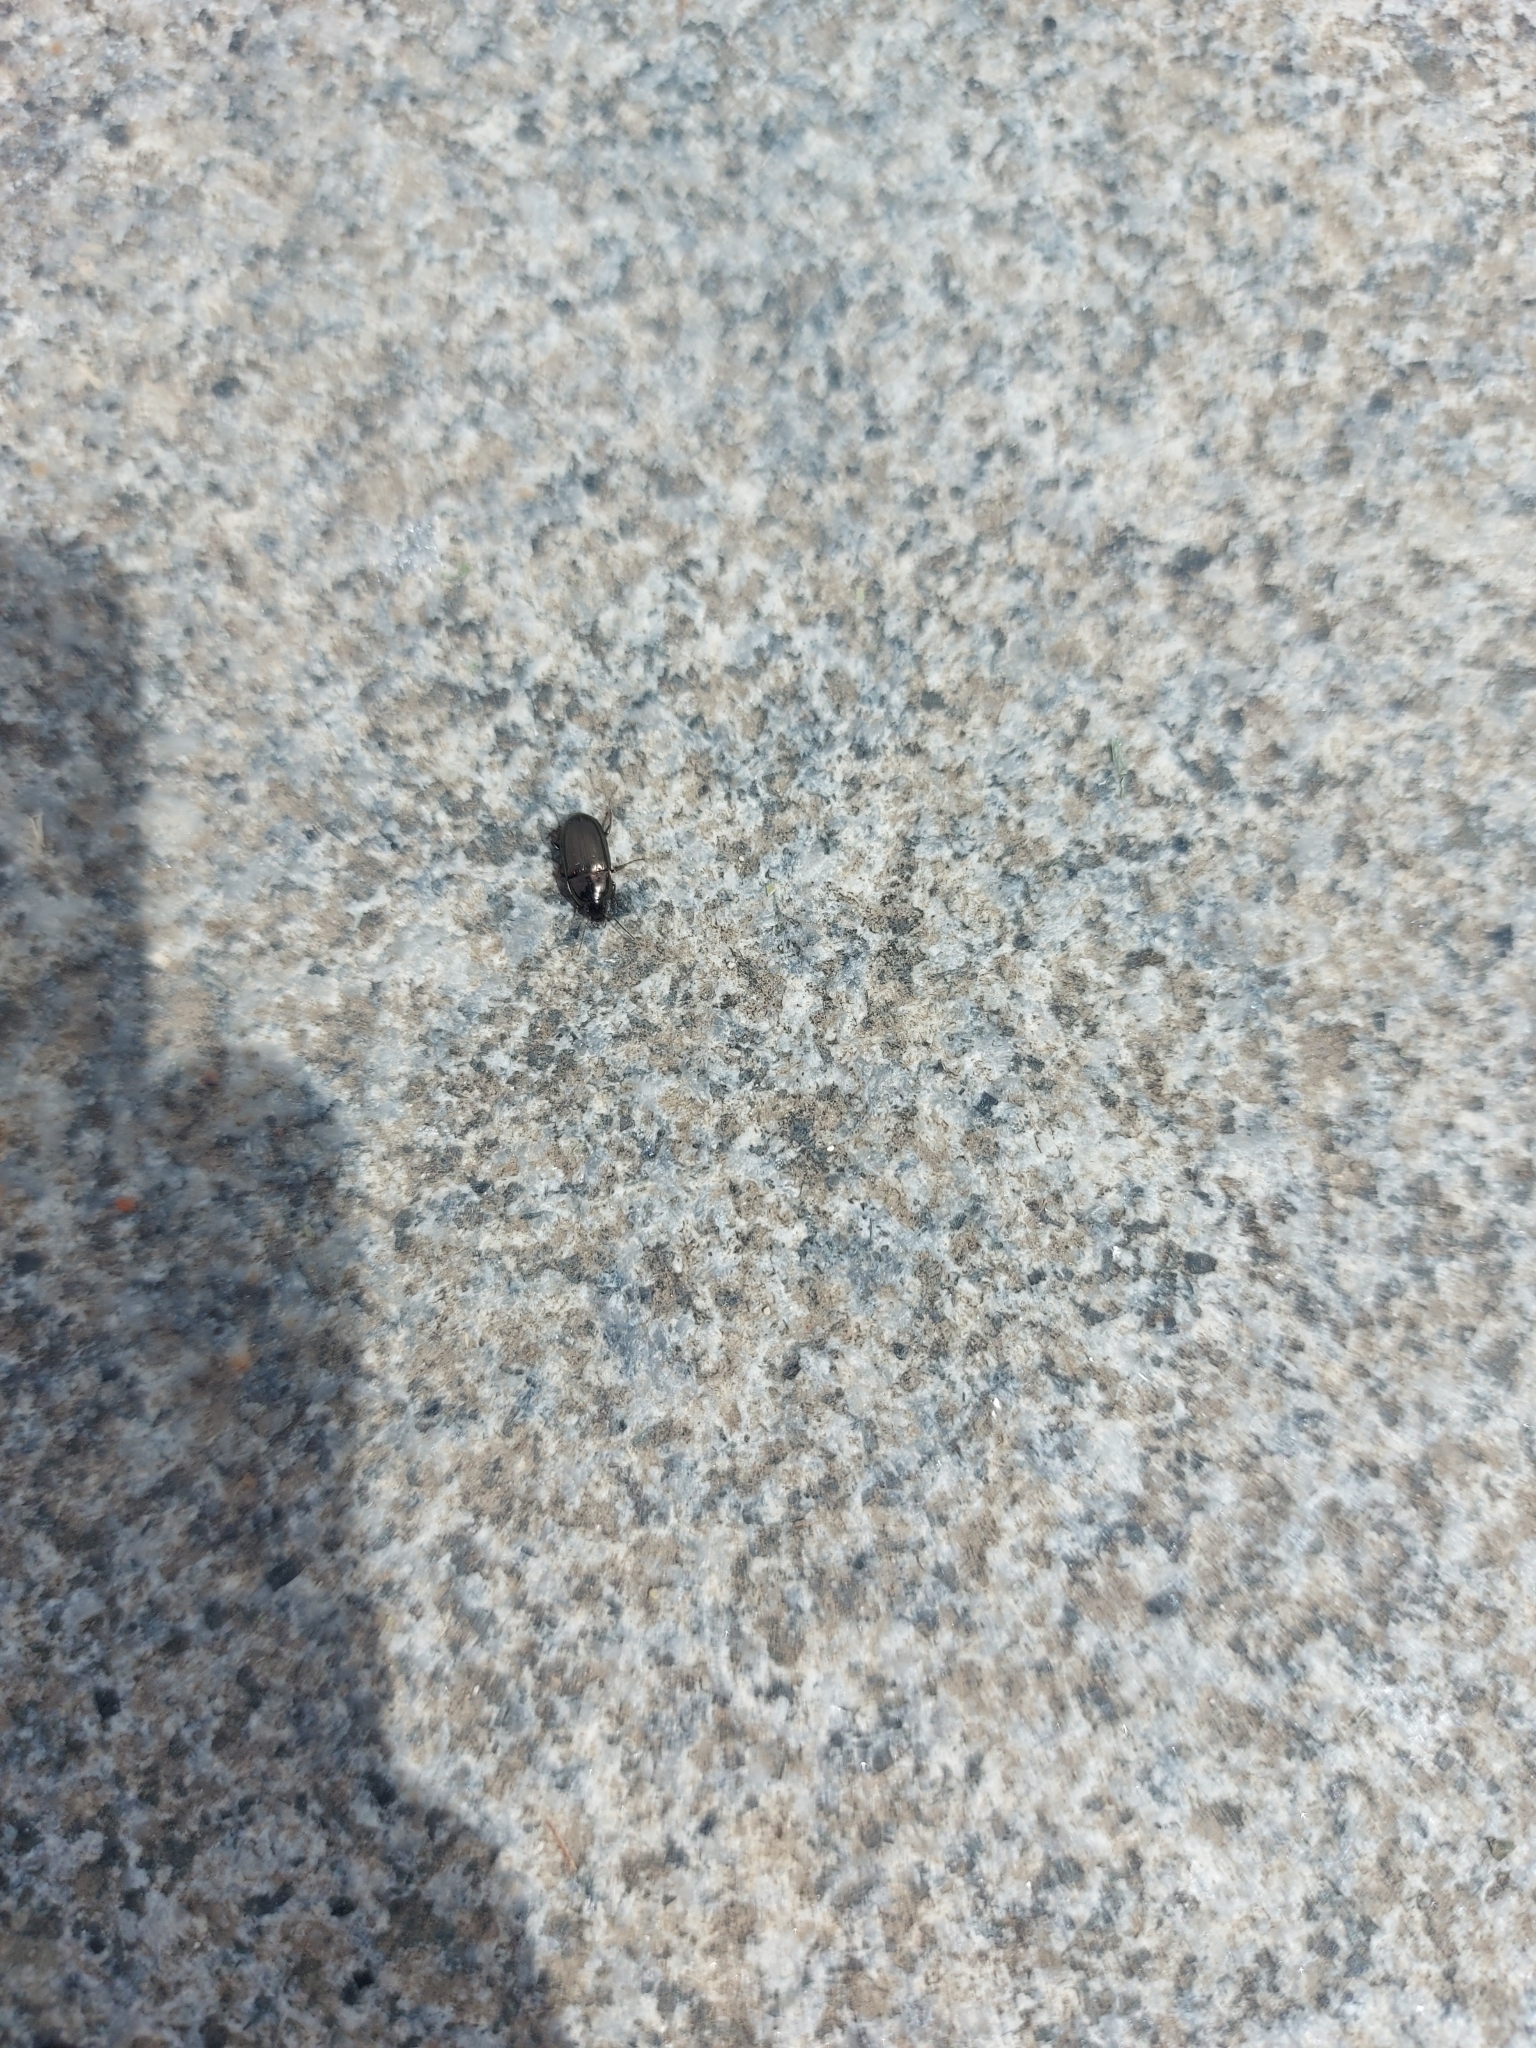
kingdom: Animalia
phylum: Arthropoda
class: Insecta
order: Coleoptera
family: Carabidae
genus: Amara
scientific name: Amara aenea
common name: Common sun beetle
